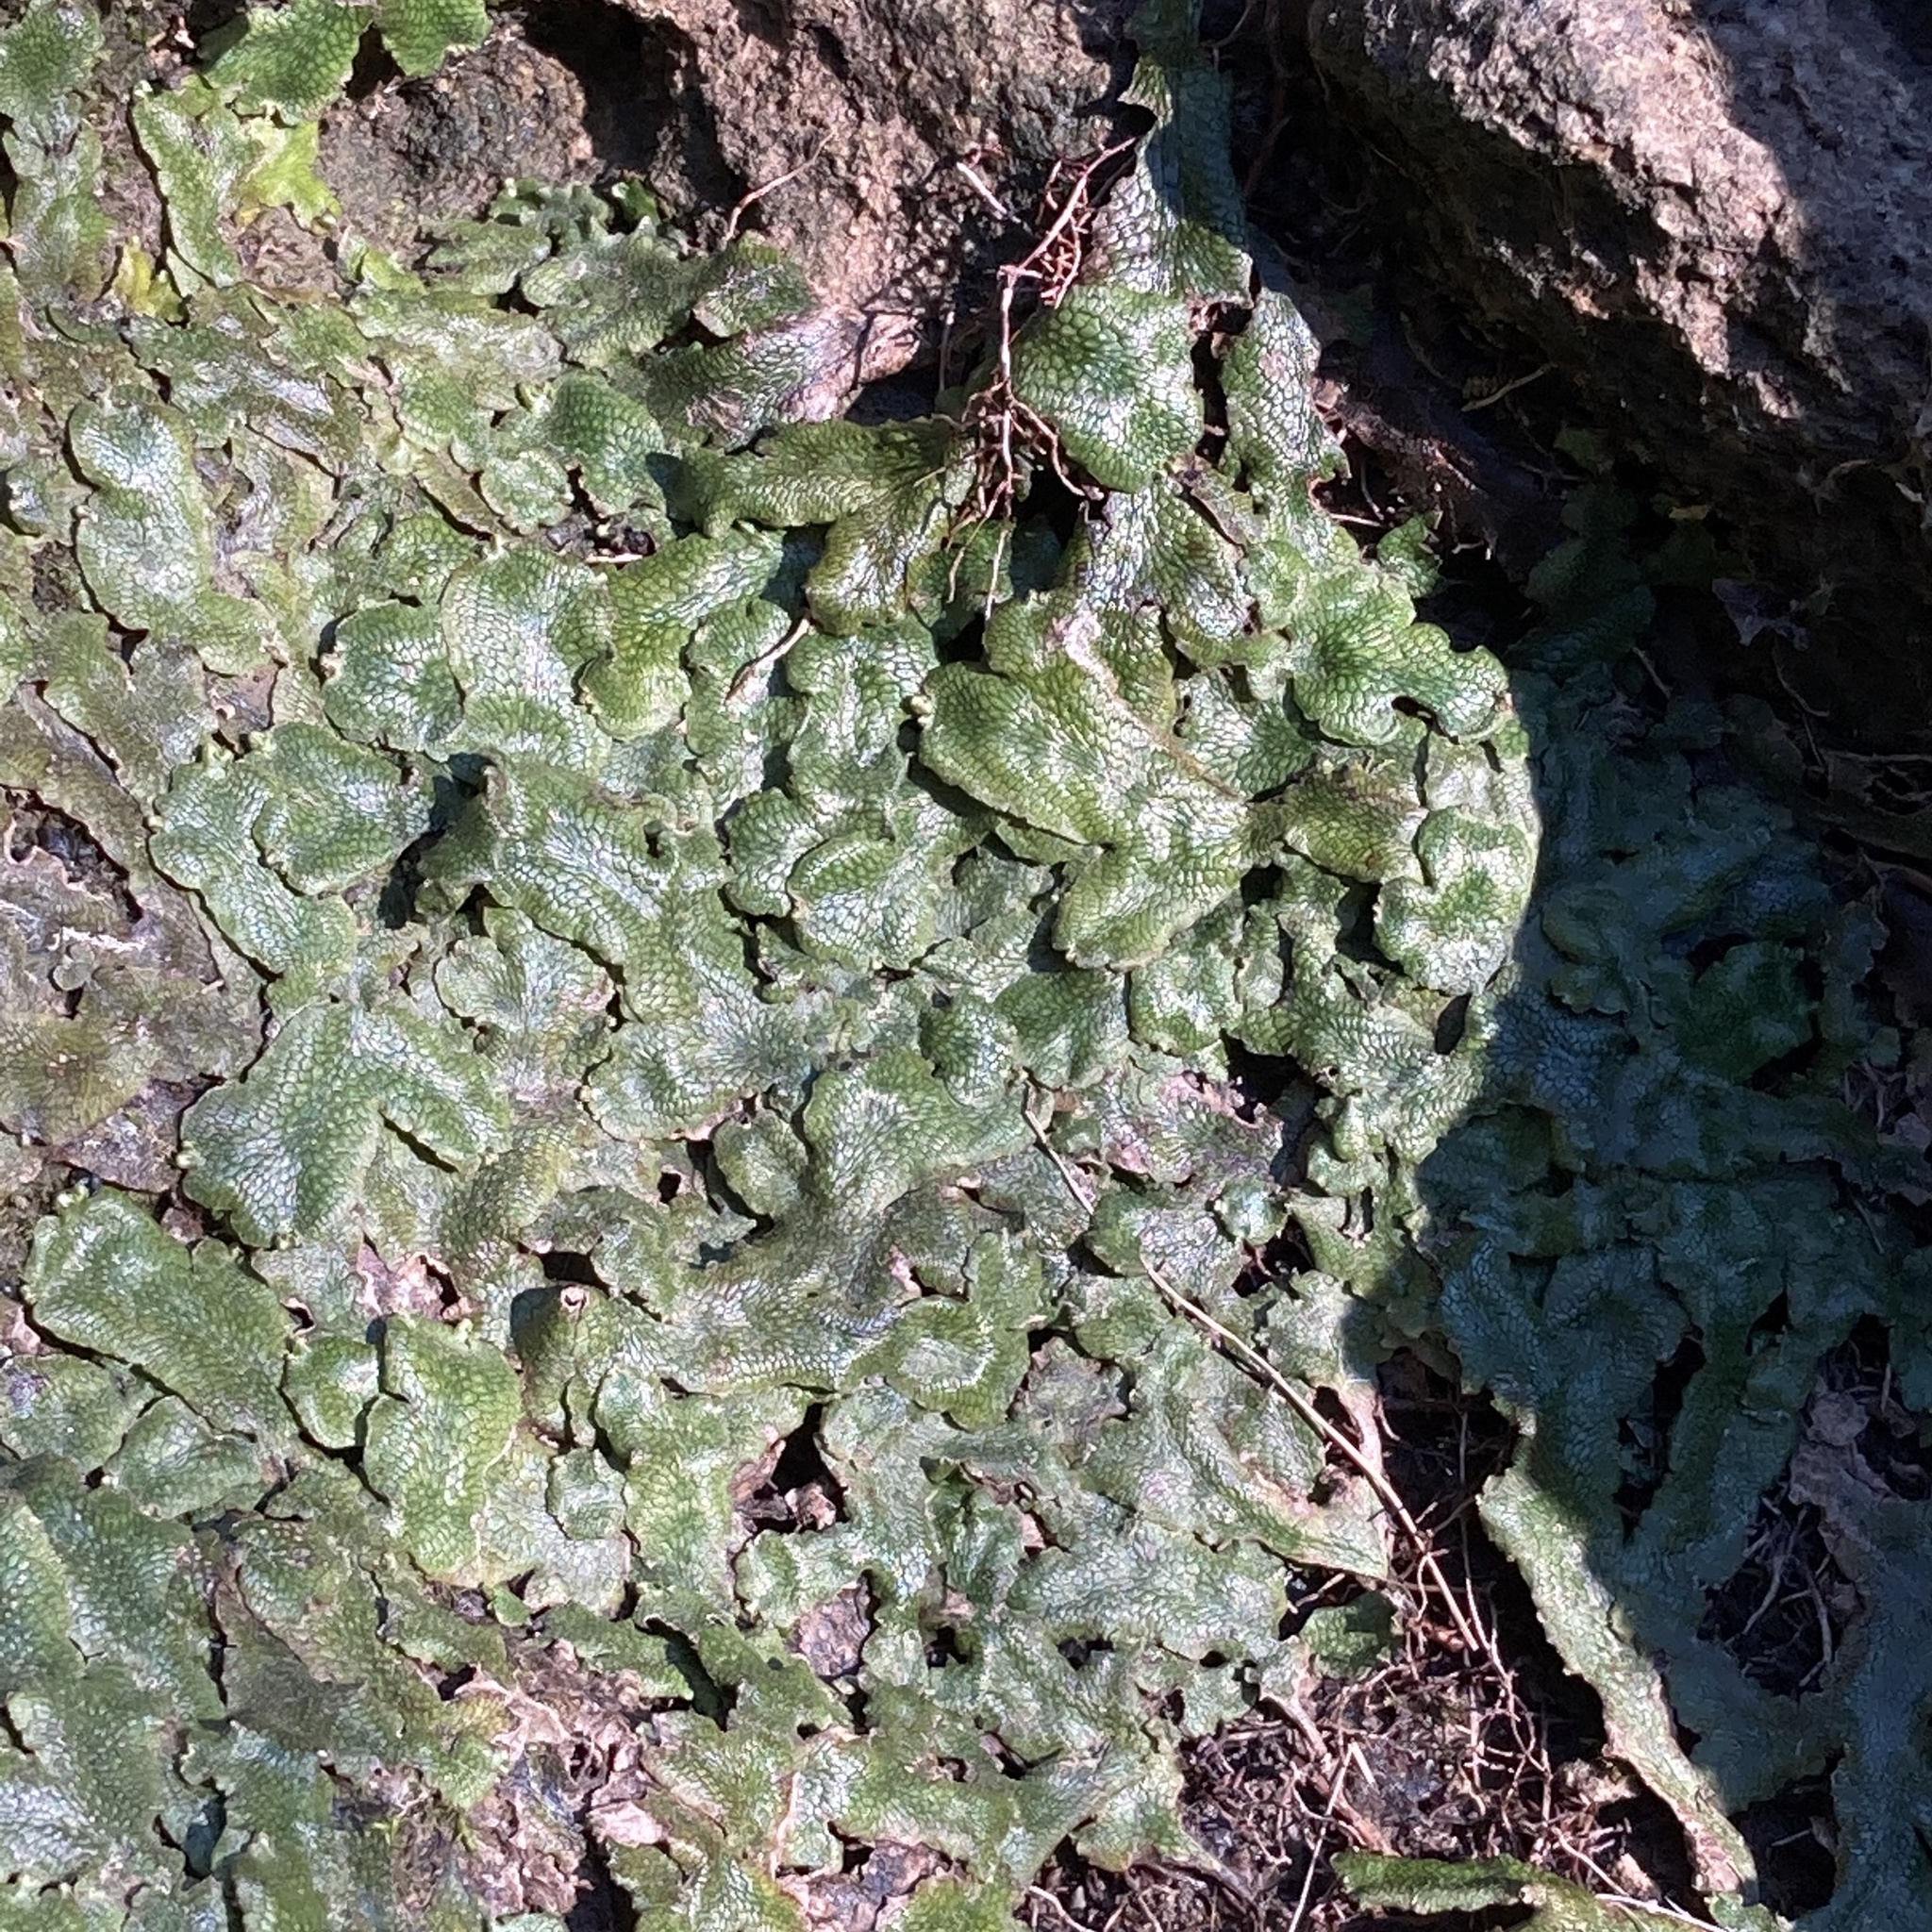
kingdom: Plantae
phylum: Marchantiophyta
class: Marchantiopsida
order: Marchantiales
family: Conocephalaceae
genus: Conocephalum
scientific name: Conocephalum salebrosum
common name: Cat-tongue liverwort
